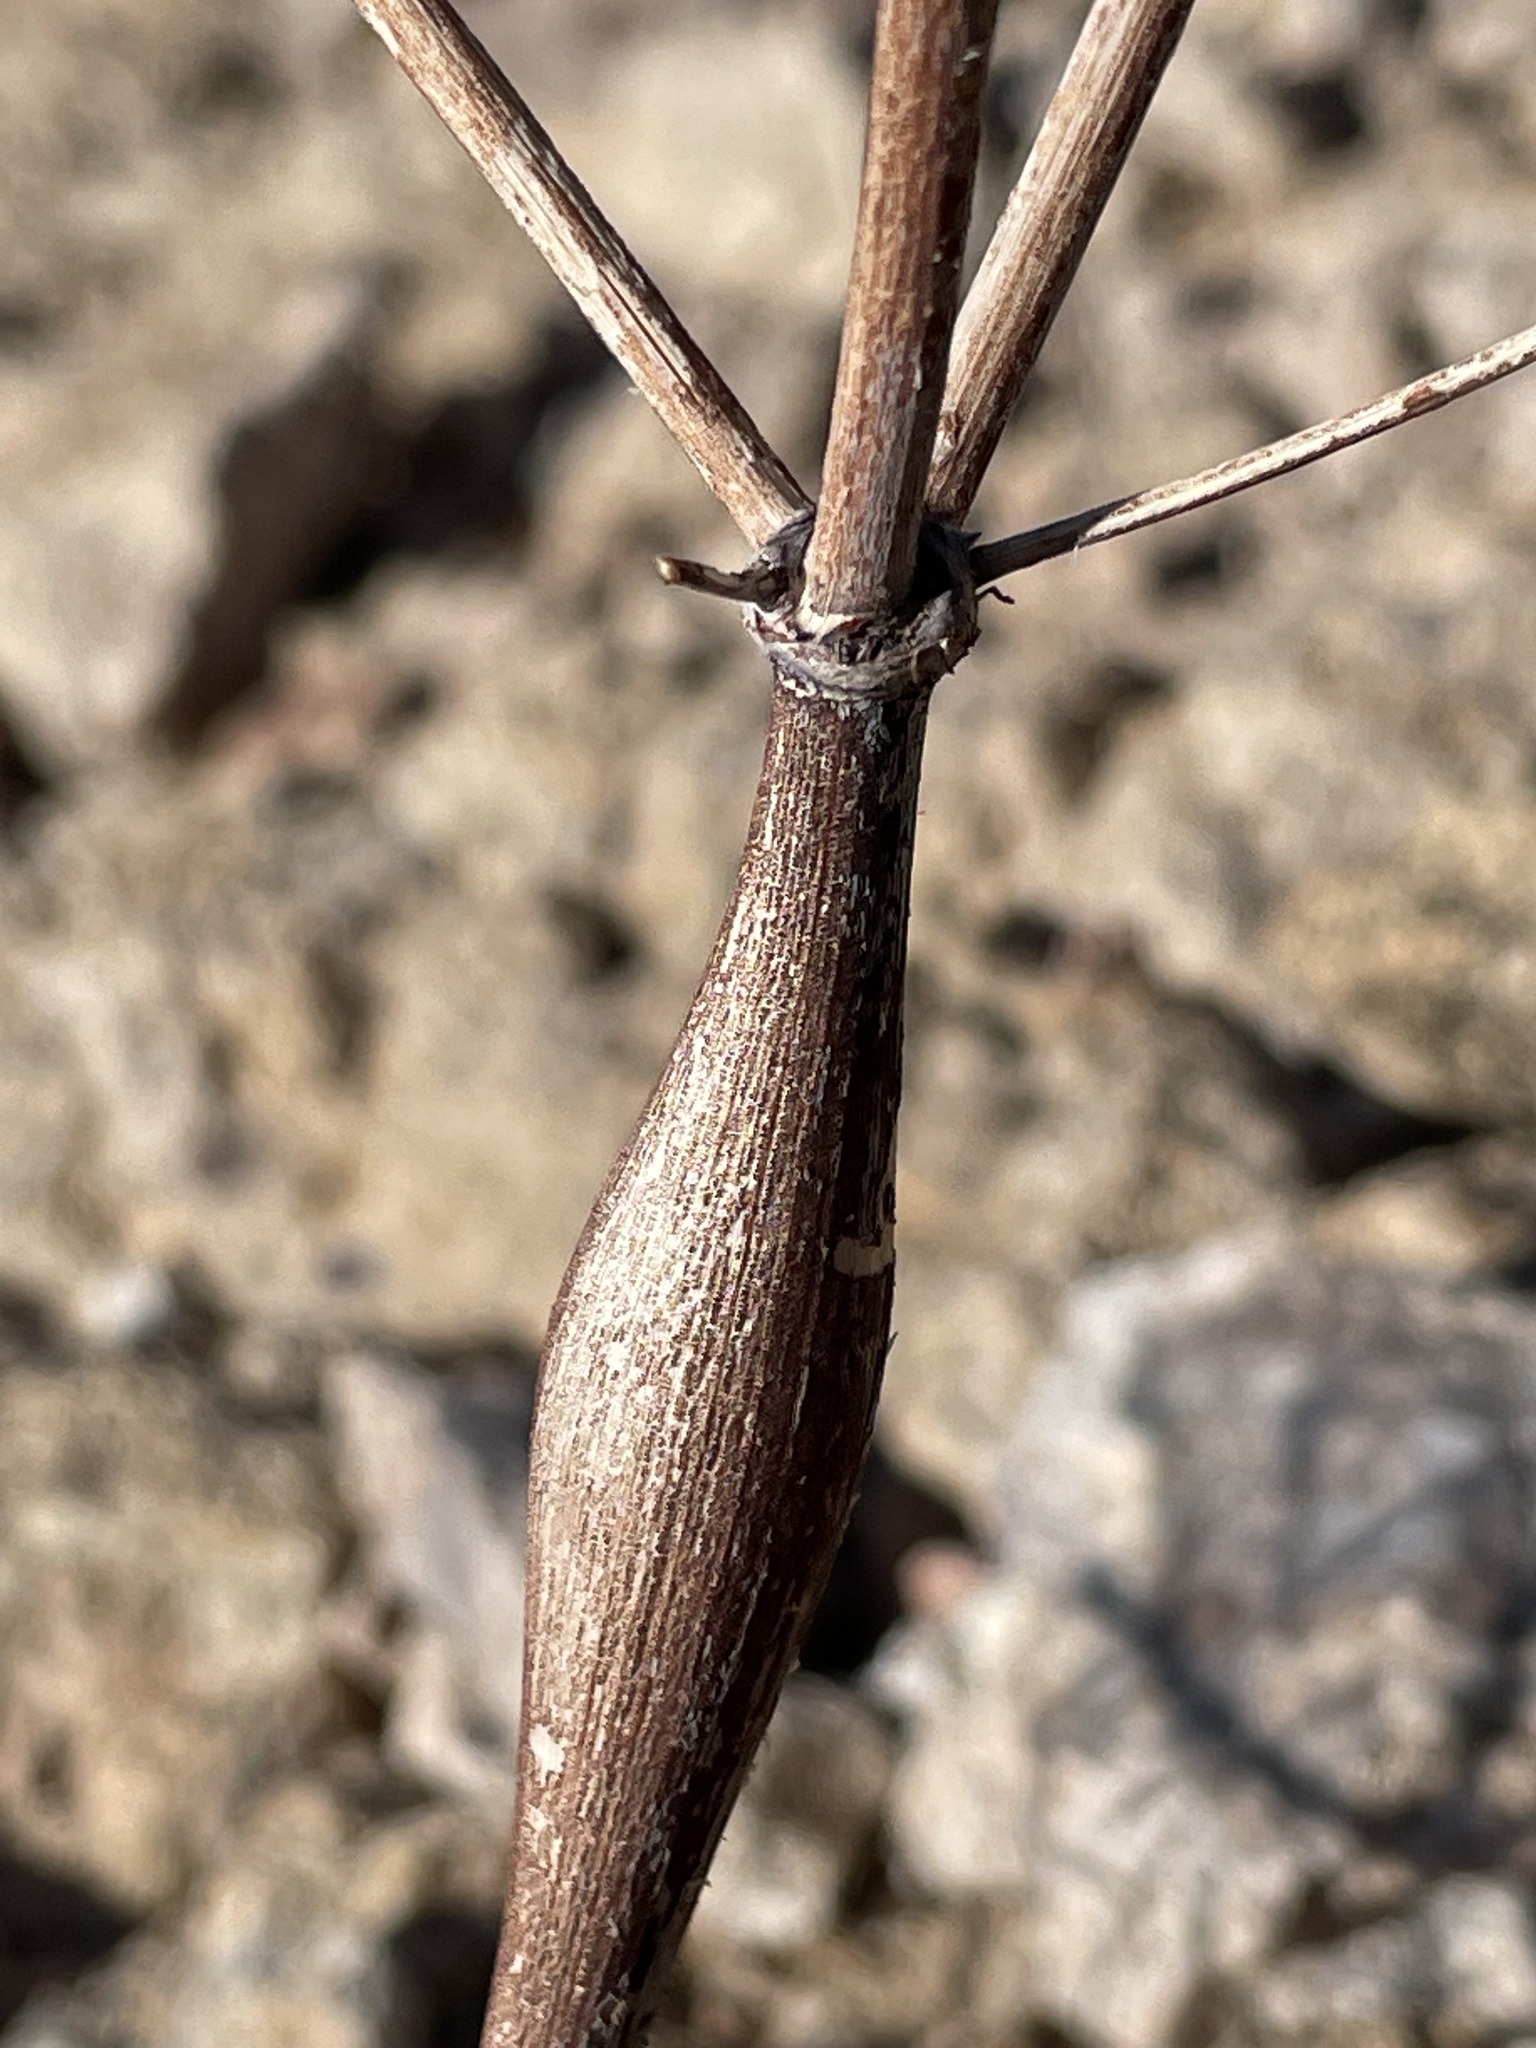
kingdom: Plantae
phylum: Tracheophyta
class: Magnoliopsida
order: Caryophyllales
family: Polygonaceae
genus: Eriogonum
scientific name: Eriogonum inflatum
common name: Desert trumpet
